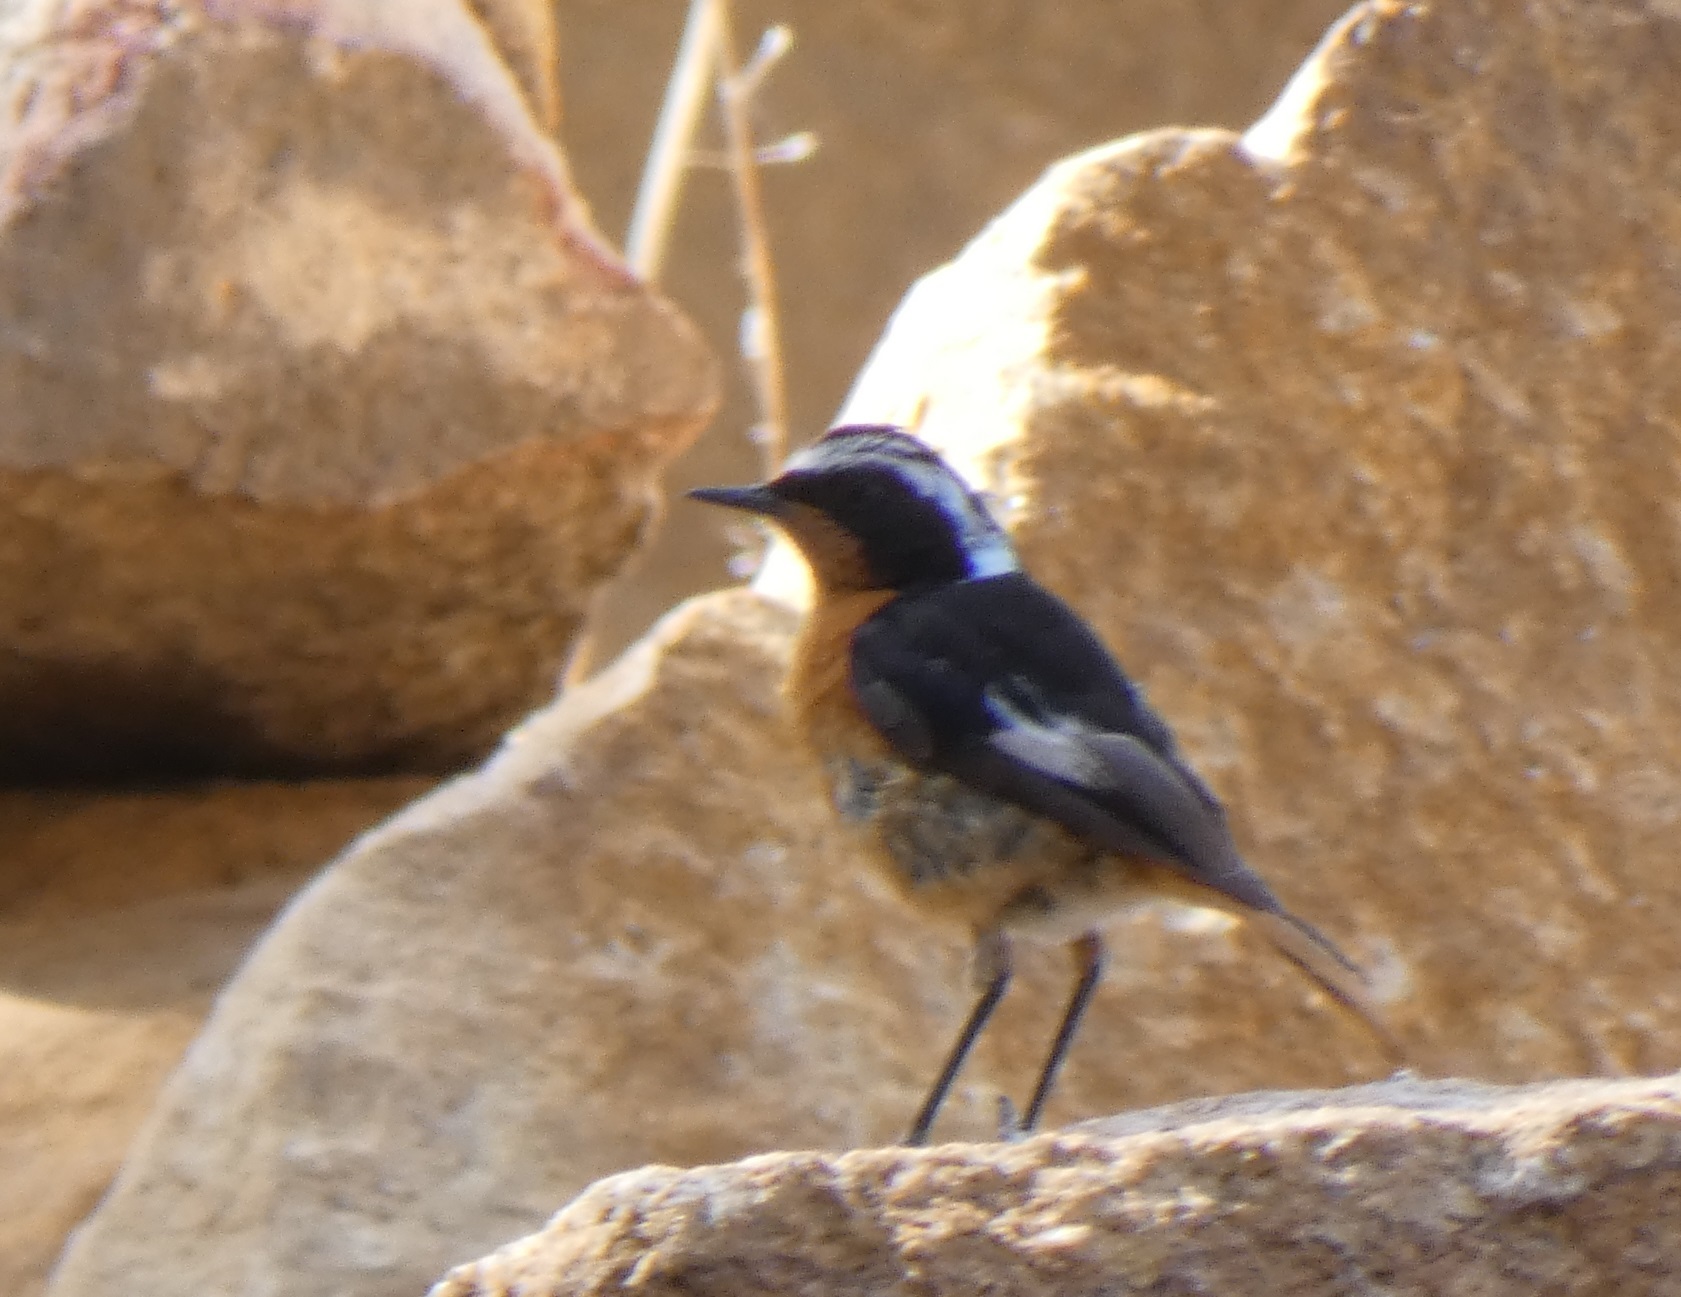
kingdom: Animalia
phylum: Chordata
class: Aves
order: Passeriformes
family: Muscicapidae
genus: Phoenicurus
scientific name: Phoenicurus moussieri
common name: Moussier's redstart
